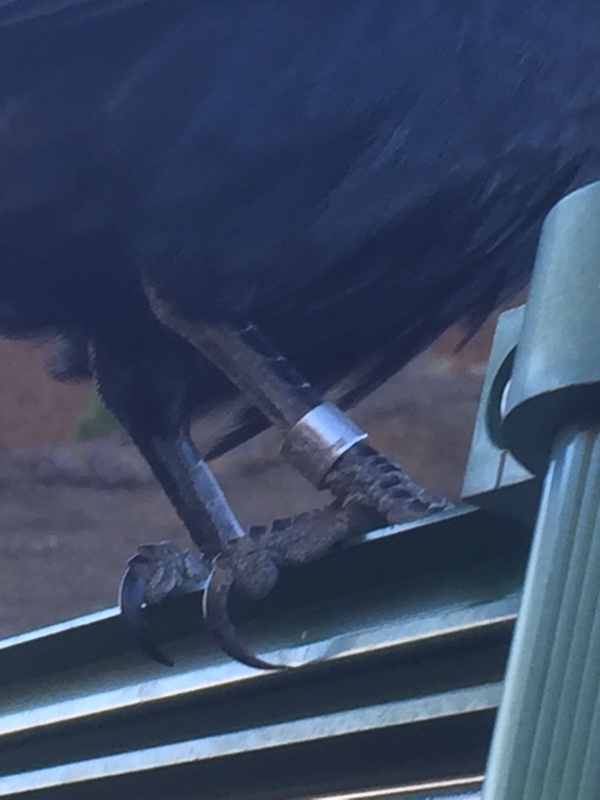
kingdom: Animalia
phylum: Chordata
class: Aves
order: Passeriformes
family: Corvidae
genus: Corvus
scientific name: Corvus corax
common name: Common raven
